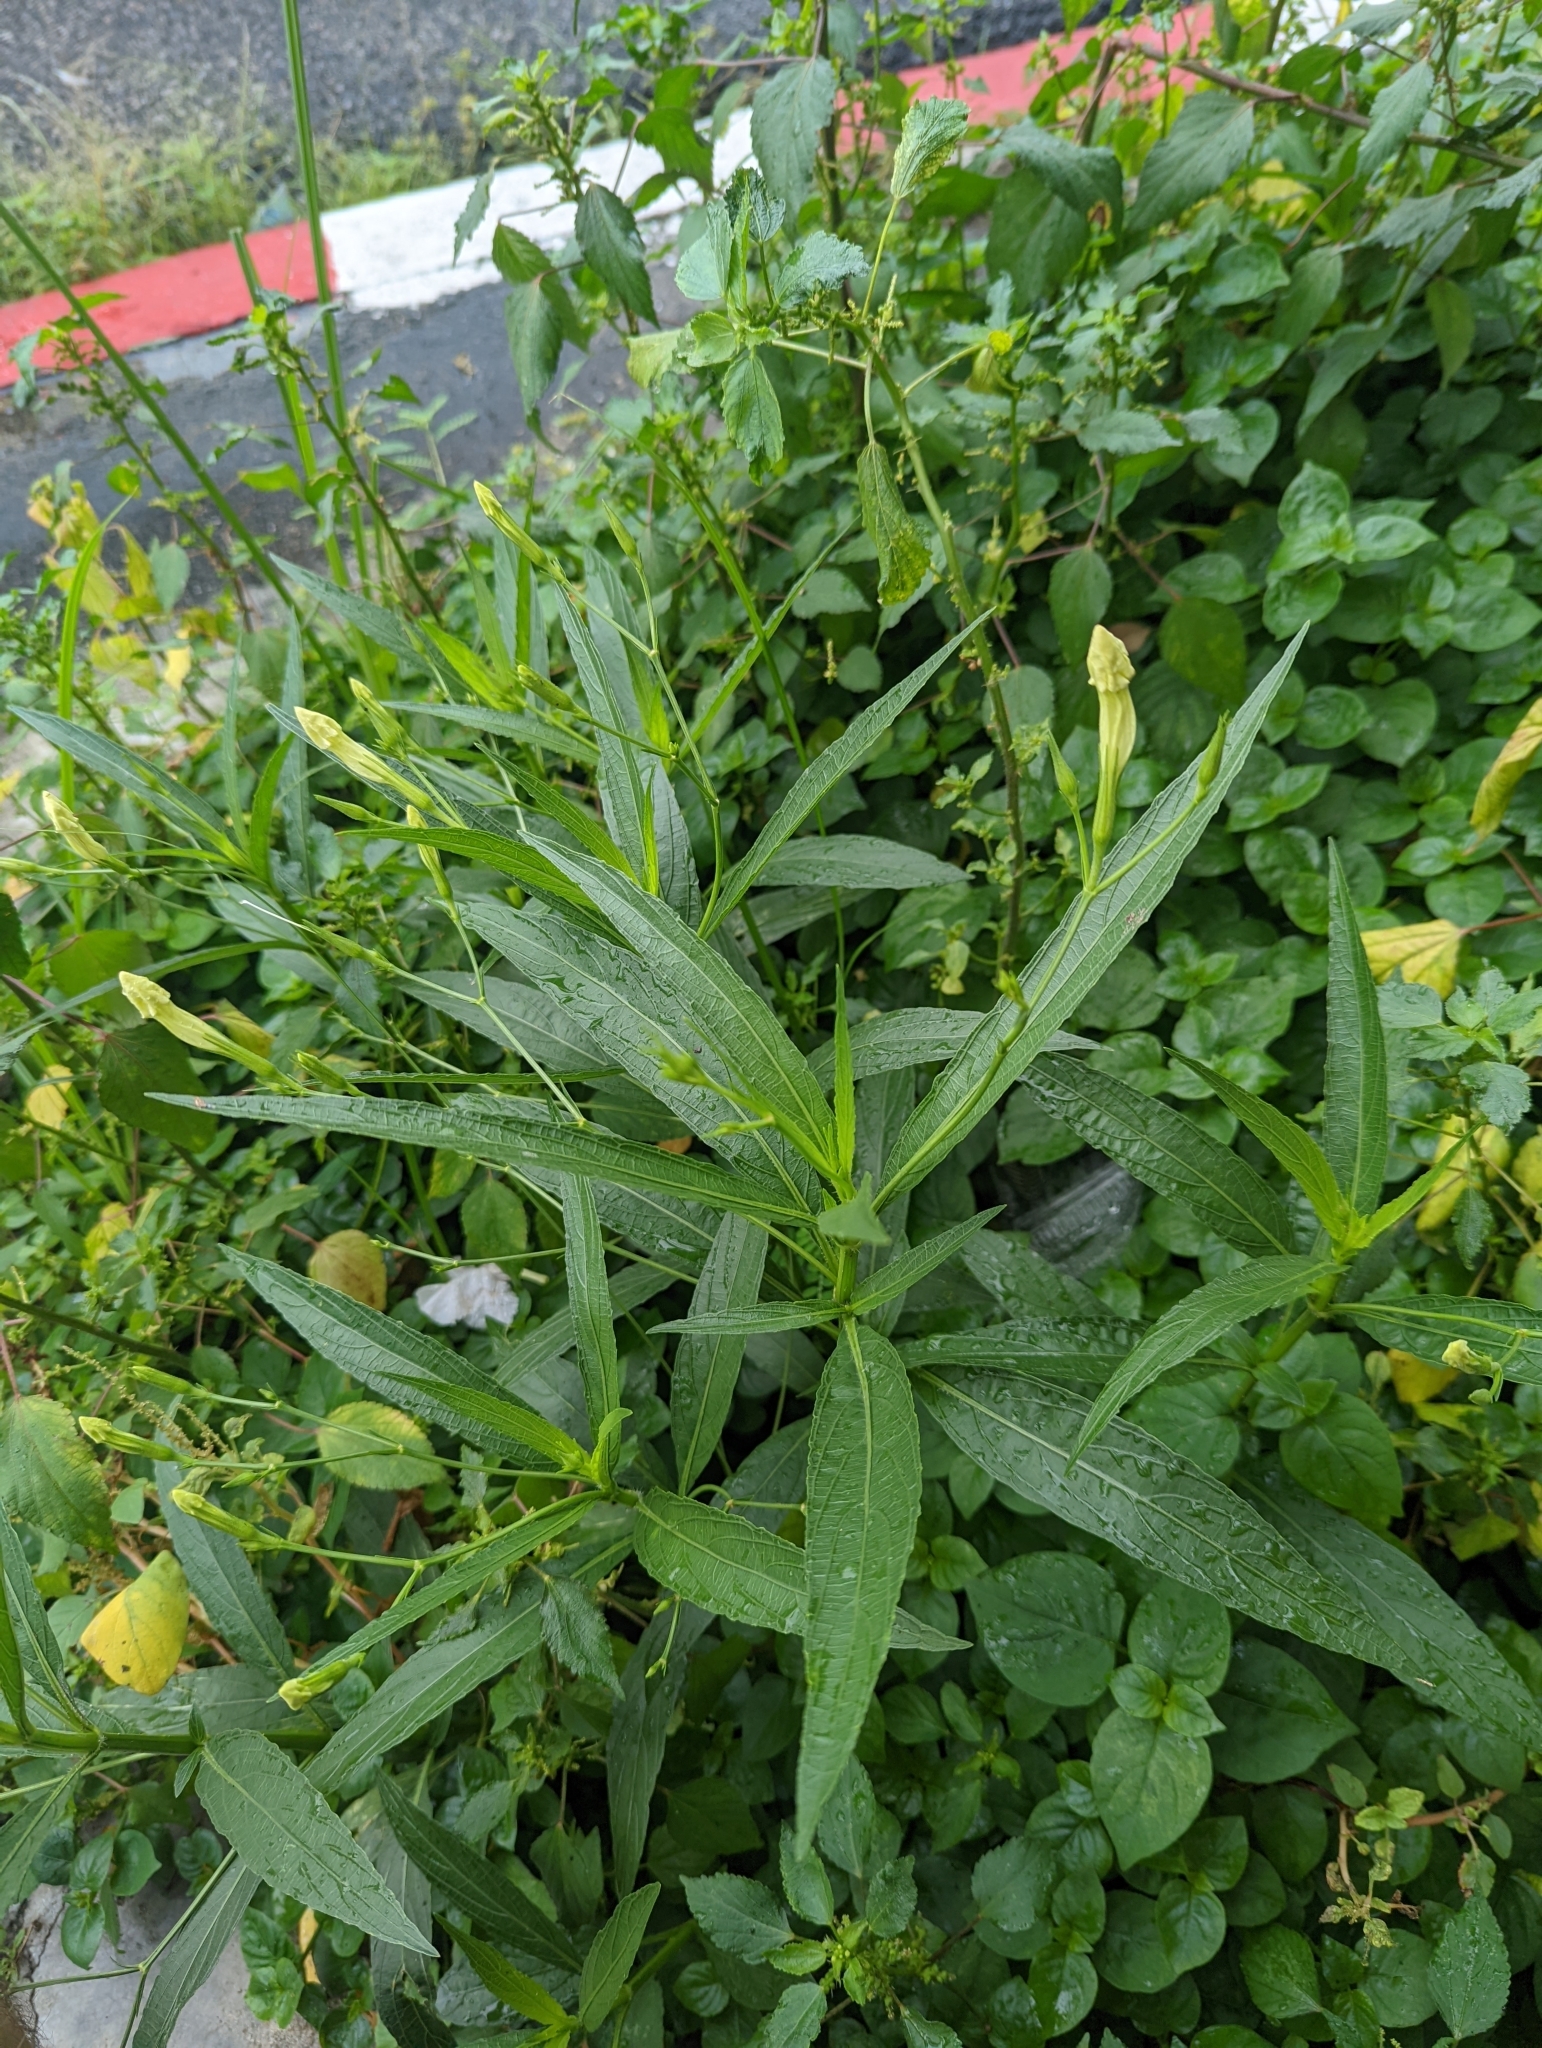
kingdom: Plantae
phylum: Tracheophyta
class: Magnoliopsida
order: Lamiales
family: Acanthaceae
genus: Ruellia
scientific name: Ruellia simplex
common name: Softseed wild petunia
